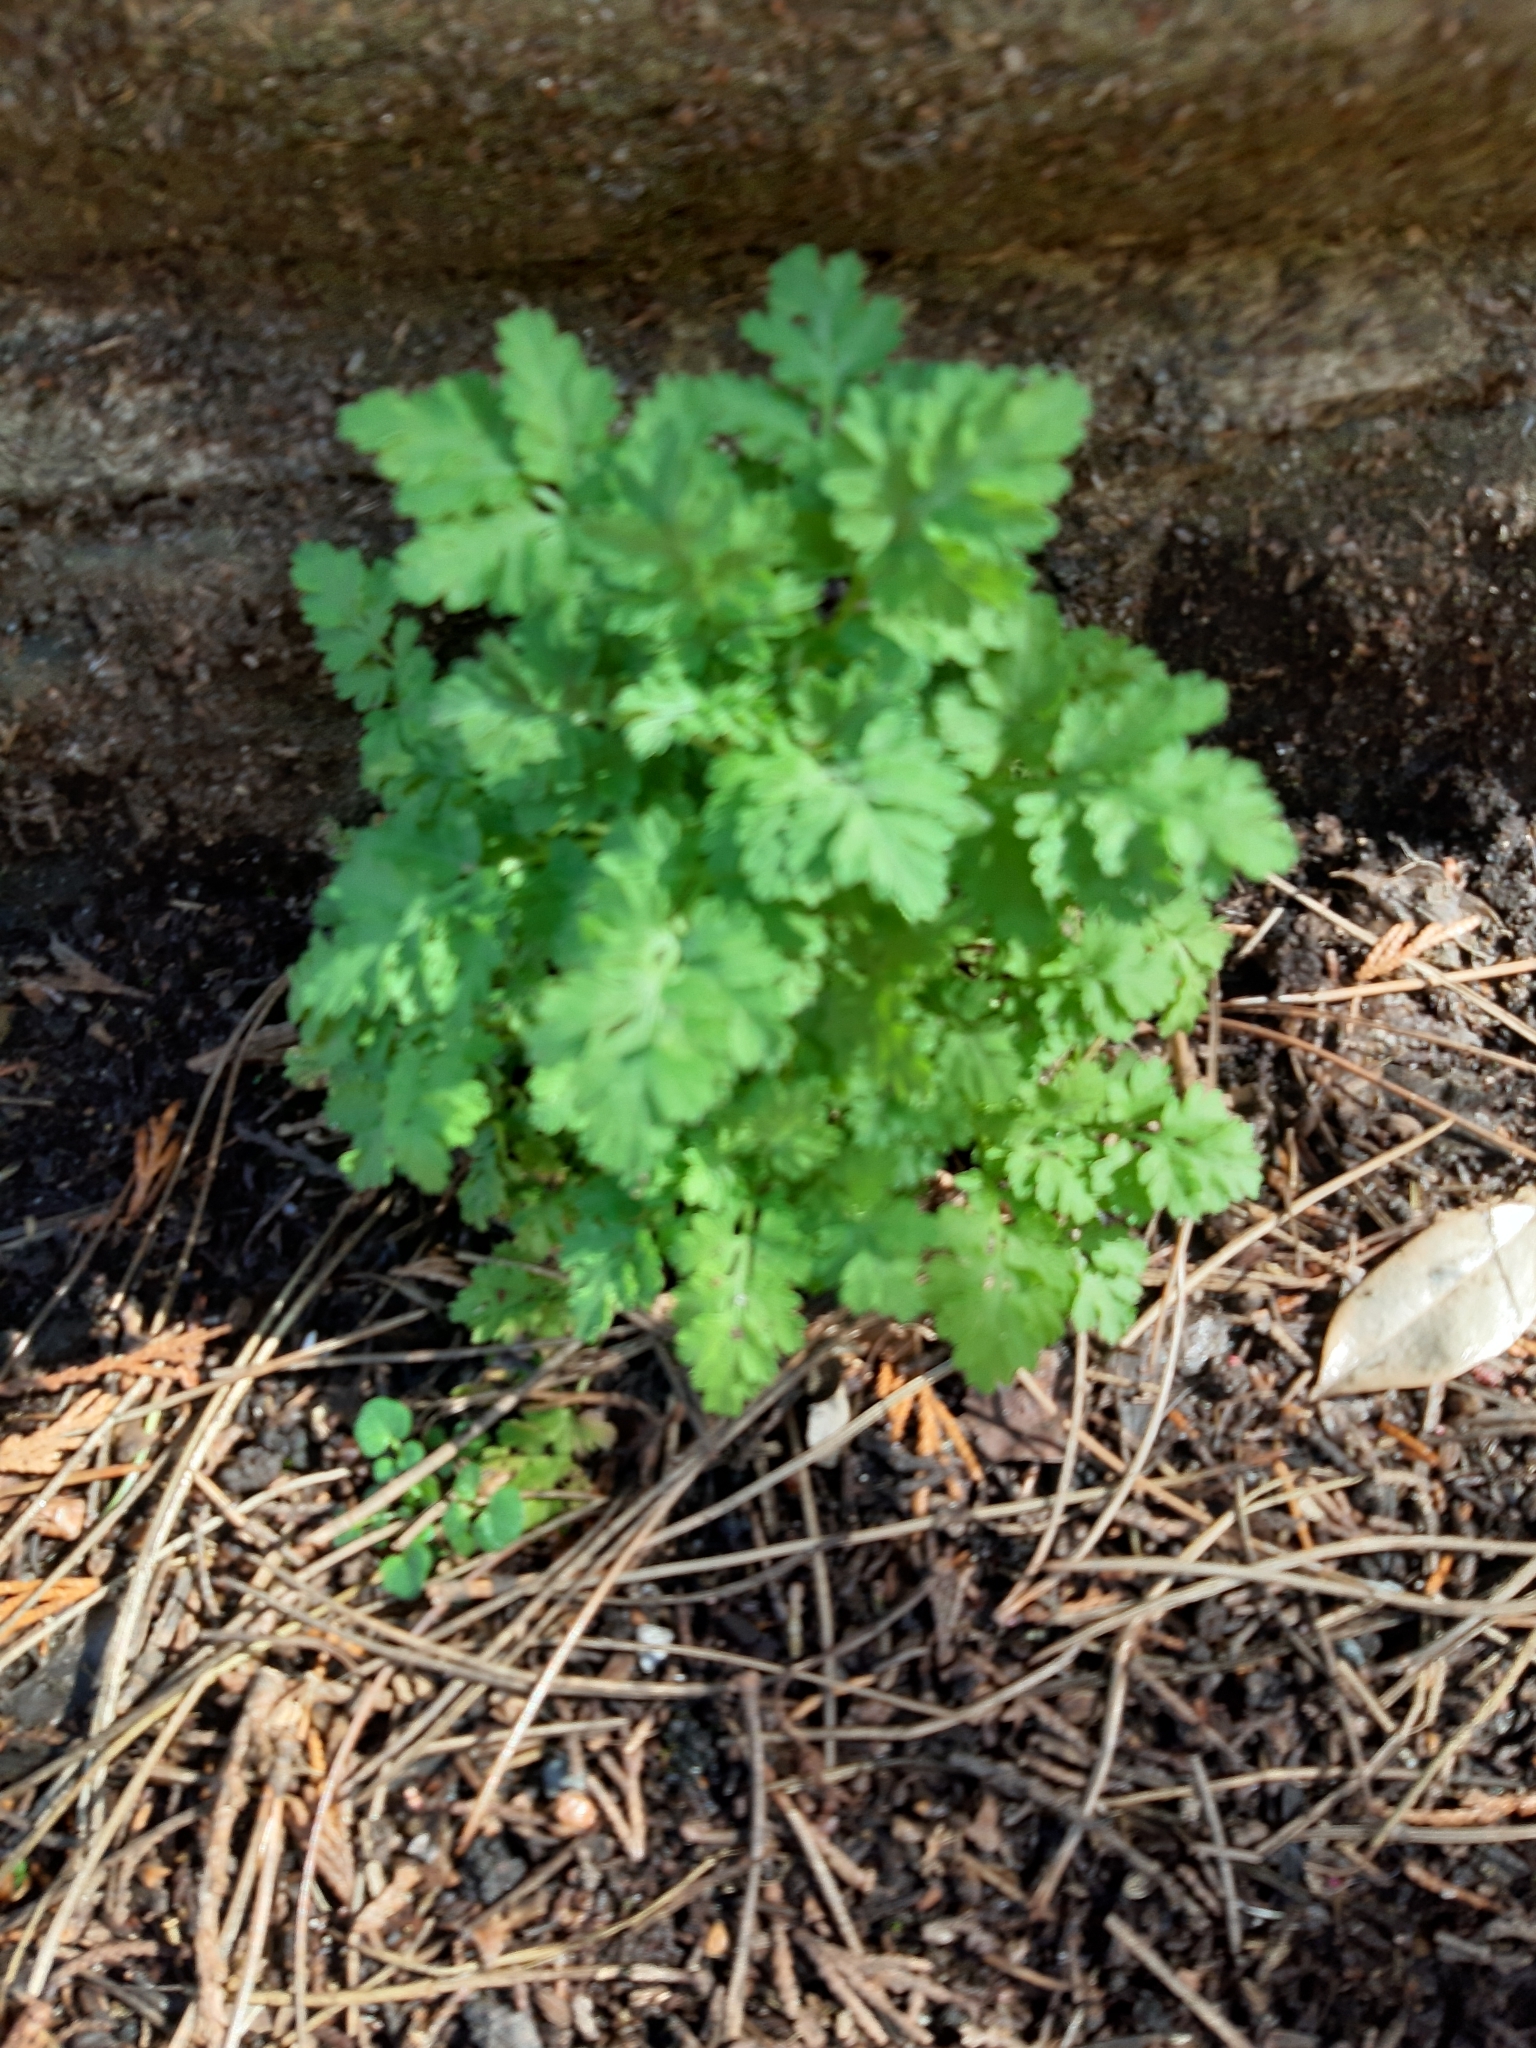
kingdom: Plantae
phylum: Tracheophyta
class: Magnoliopsida
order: Asterales
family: Asteraceae
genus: Tanacetum
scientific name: Tanacetum parthenium
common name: Feverfew
